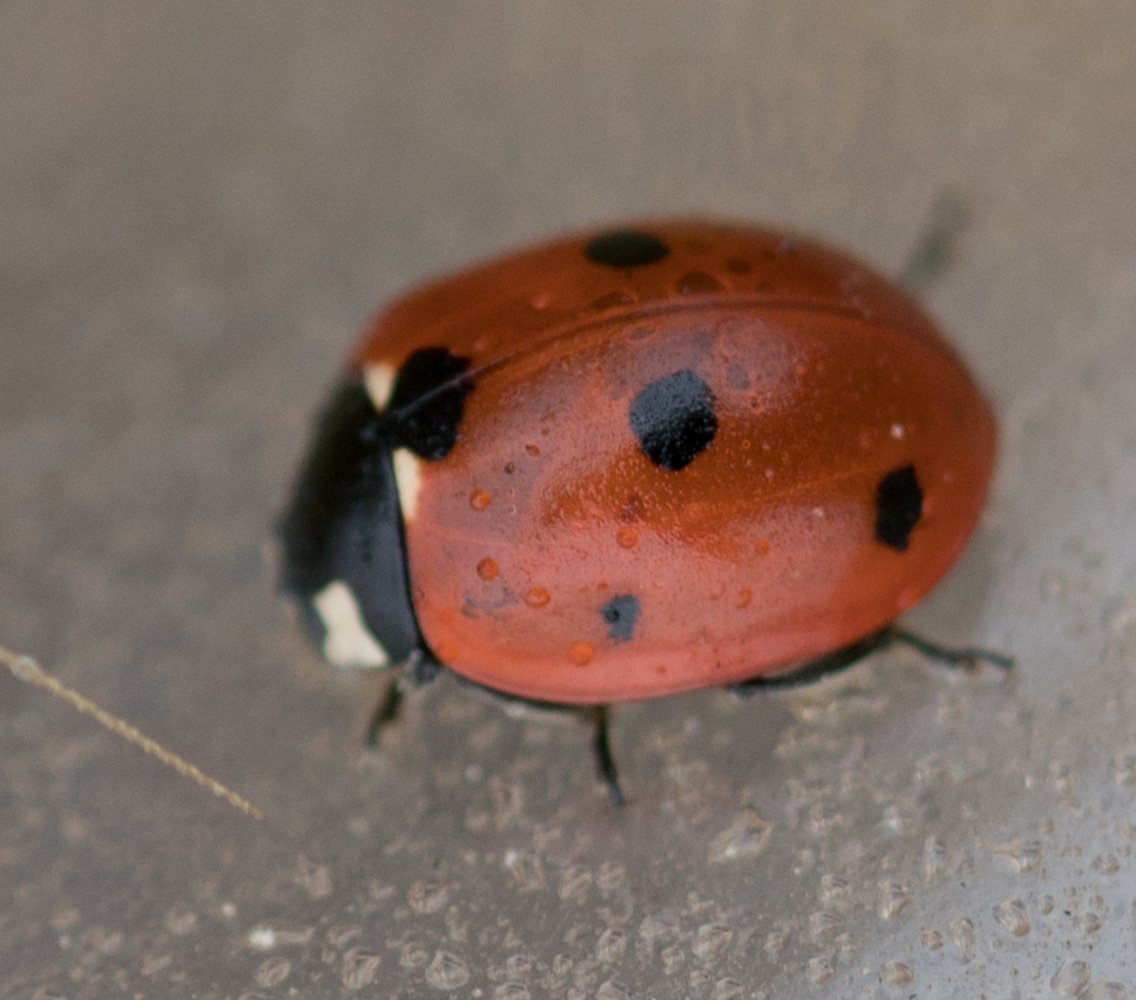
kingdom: Animalia
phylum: Arthropoda
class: Insecta
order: Coleoptera
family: Coccinellidae
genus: Coccinella
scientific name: Coccinella septempunctata
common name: Sevenspotted lady beetle
